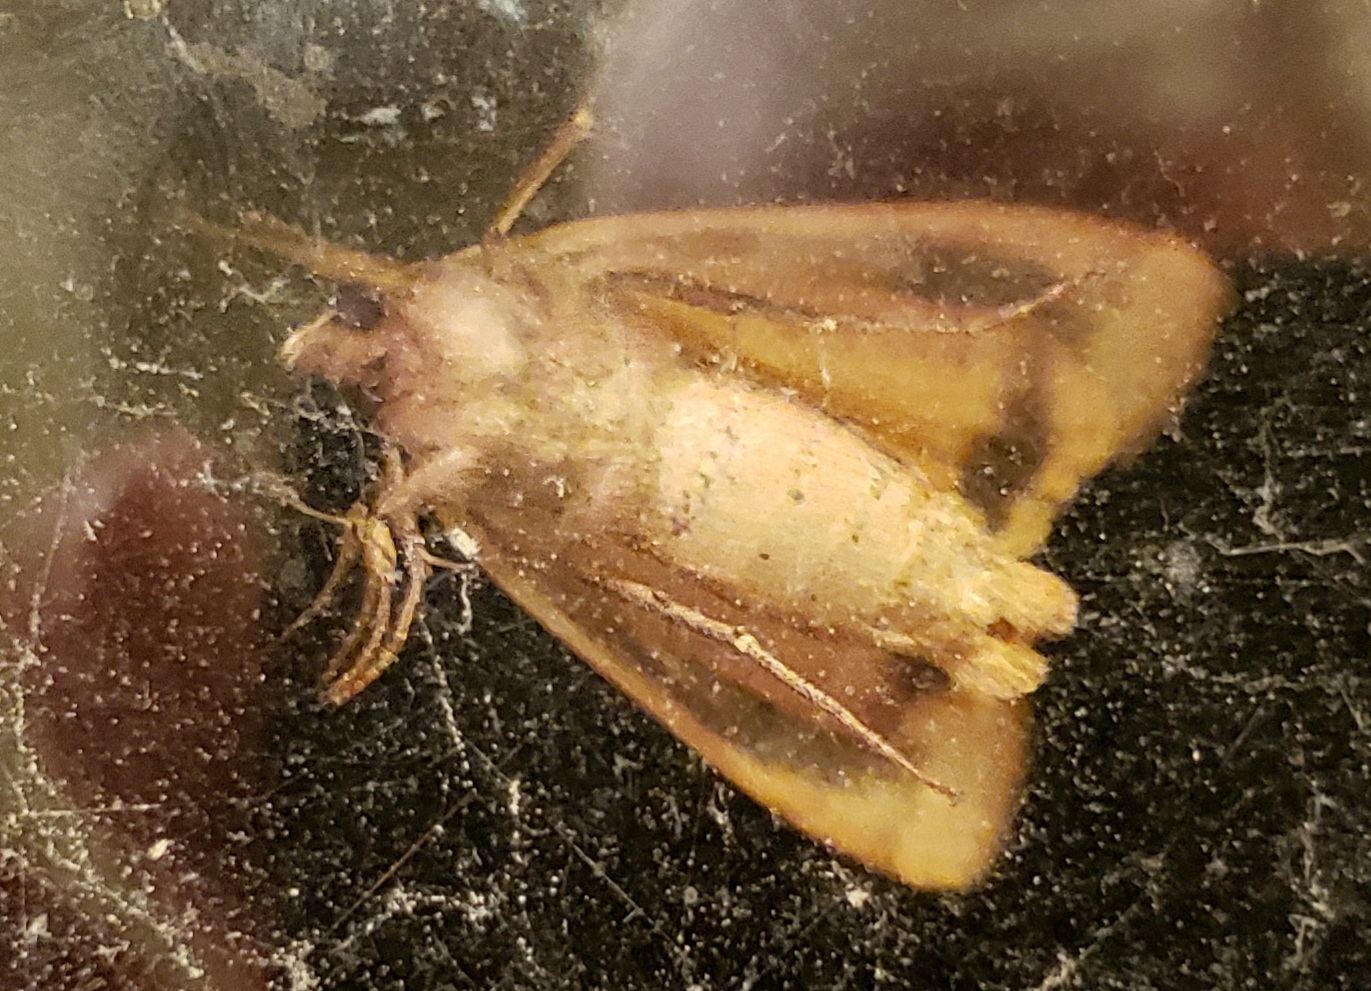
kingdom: Animalia
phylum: Arthropoda
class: Insecta
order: Lepidoptera
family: Noctuidae
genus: Noctua
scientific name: Noctua pronuba
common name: Large yellow underwing
